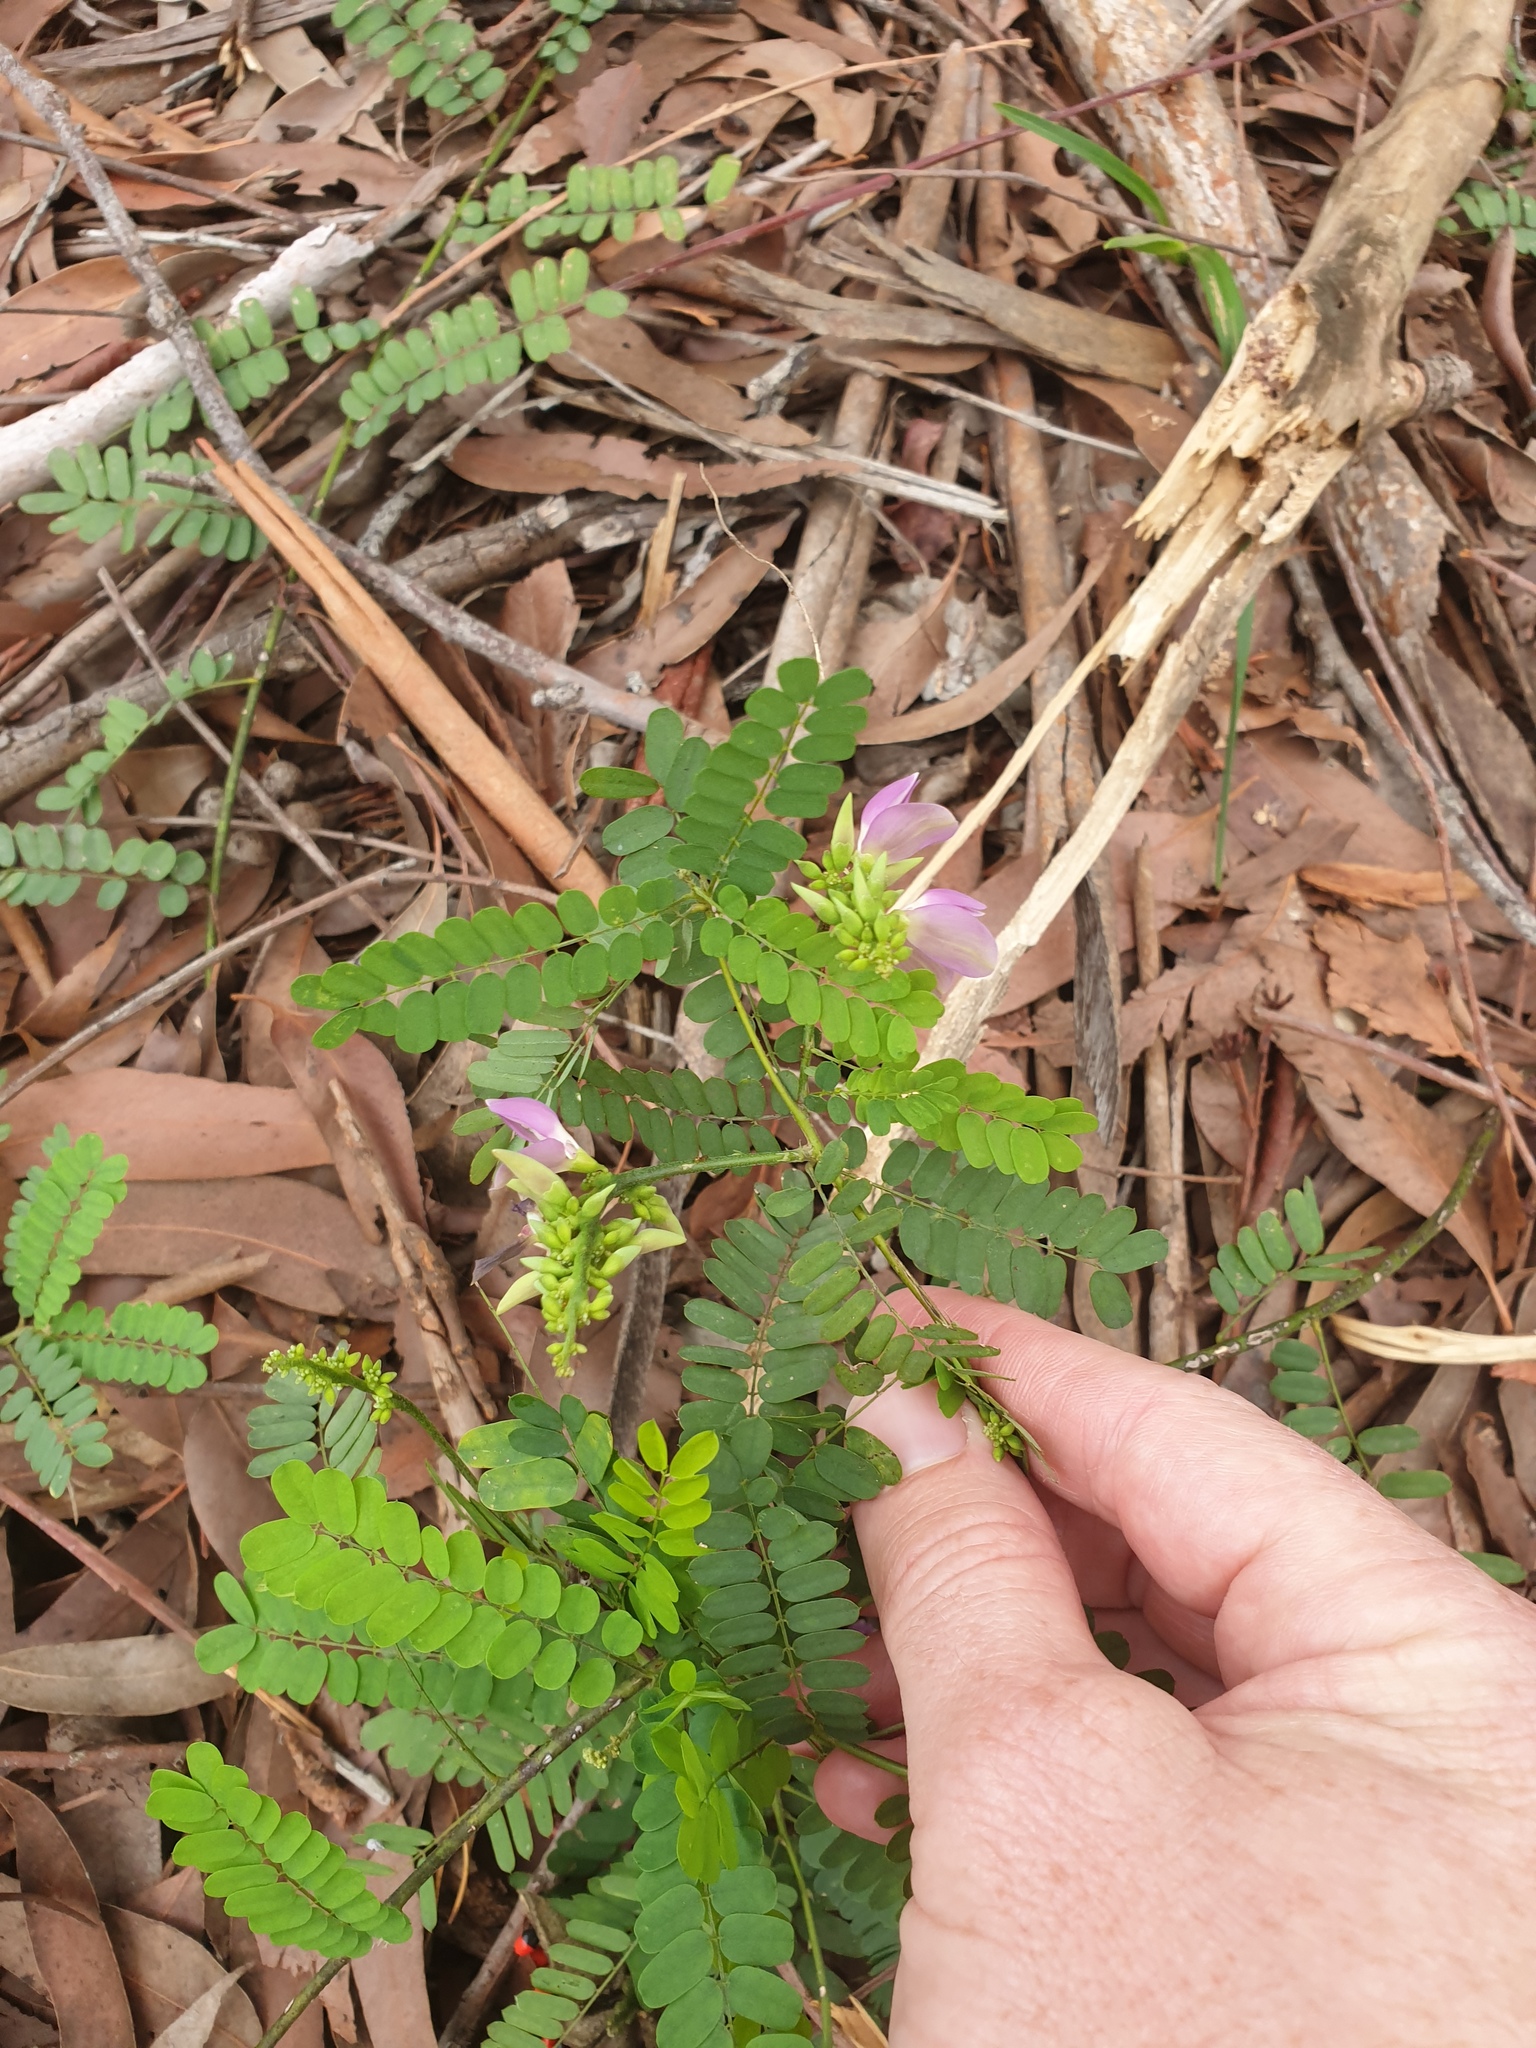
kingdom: Plantae
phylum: Tracheophyta
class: Magnoliopsida
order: Fabales
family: Fabaceae
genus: Abrus
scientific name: Abrus precatorius
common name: Rosarypea
